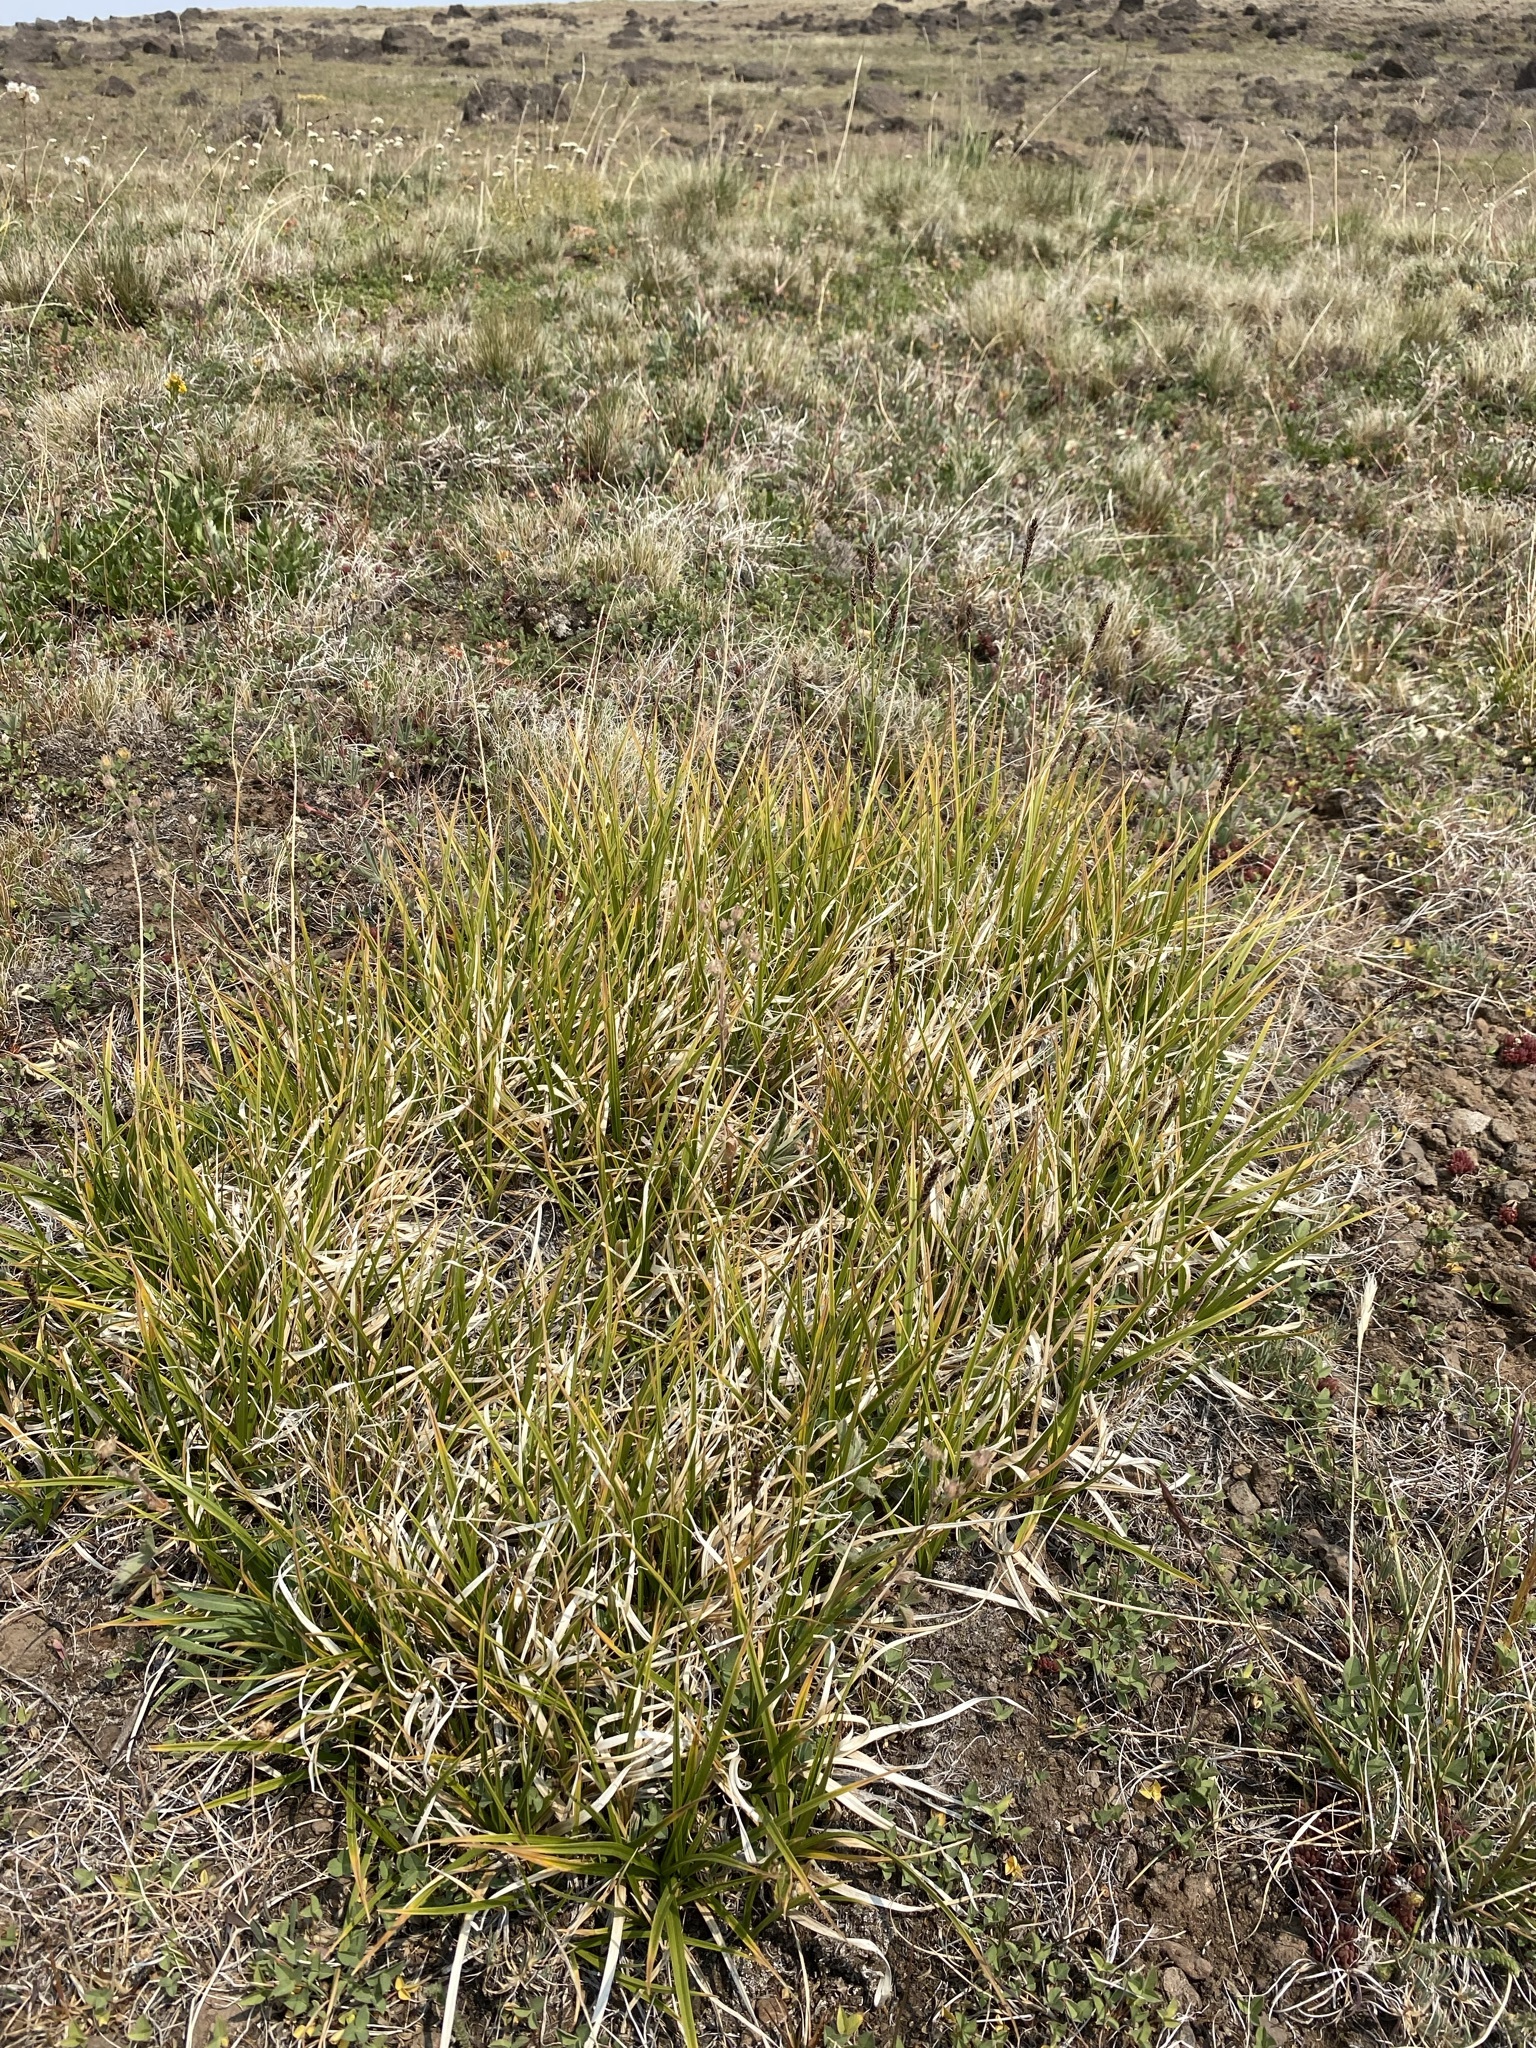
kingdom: Plantae
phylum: Tracheophyta
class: Liliopsida
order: Poales
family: Cyperaceae
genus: Carex
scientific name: Carex scirpoidea
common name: Canada single-spike sedge
